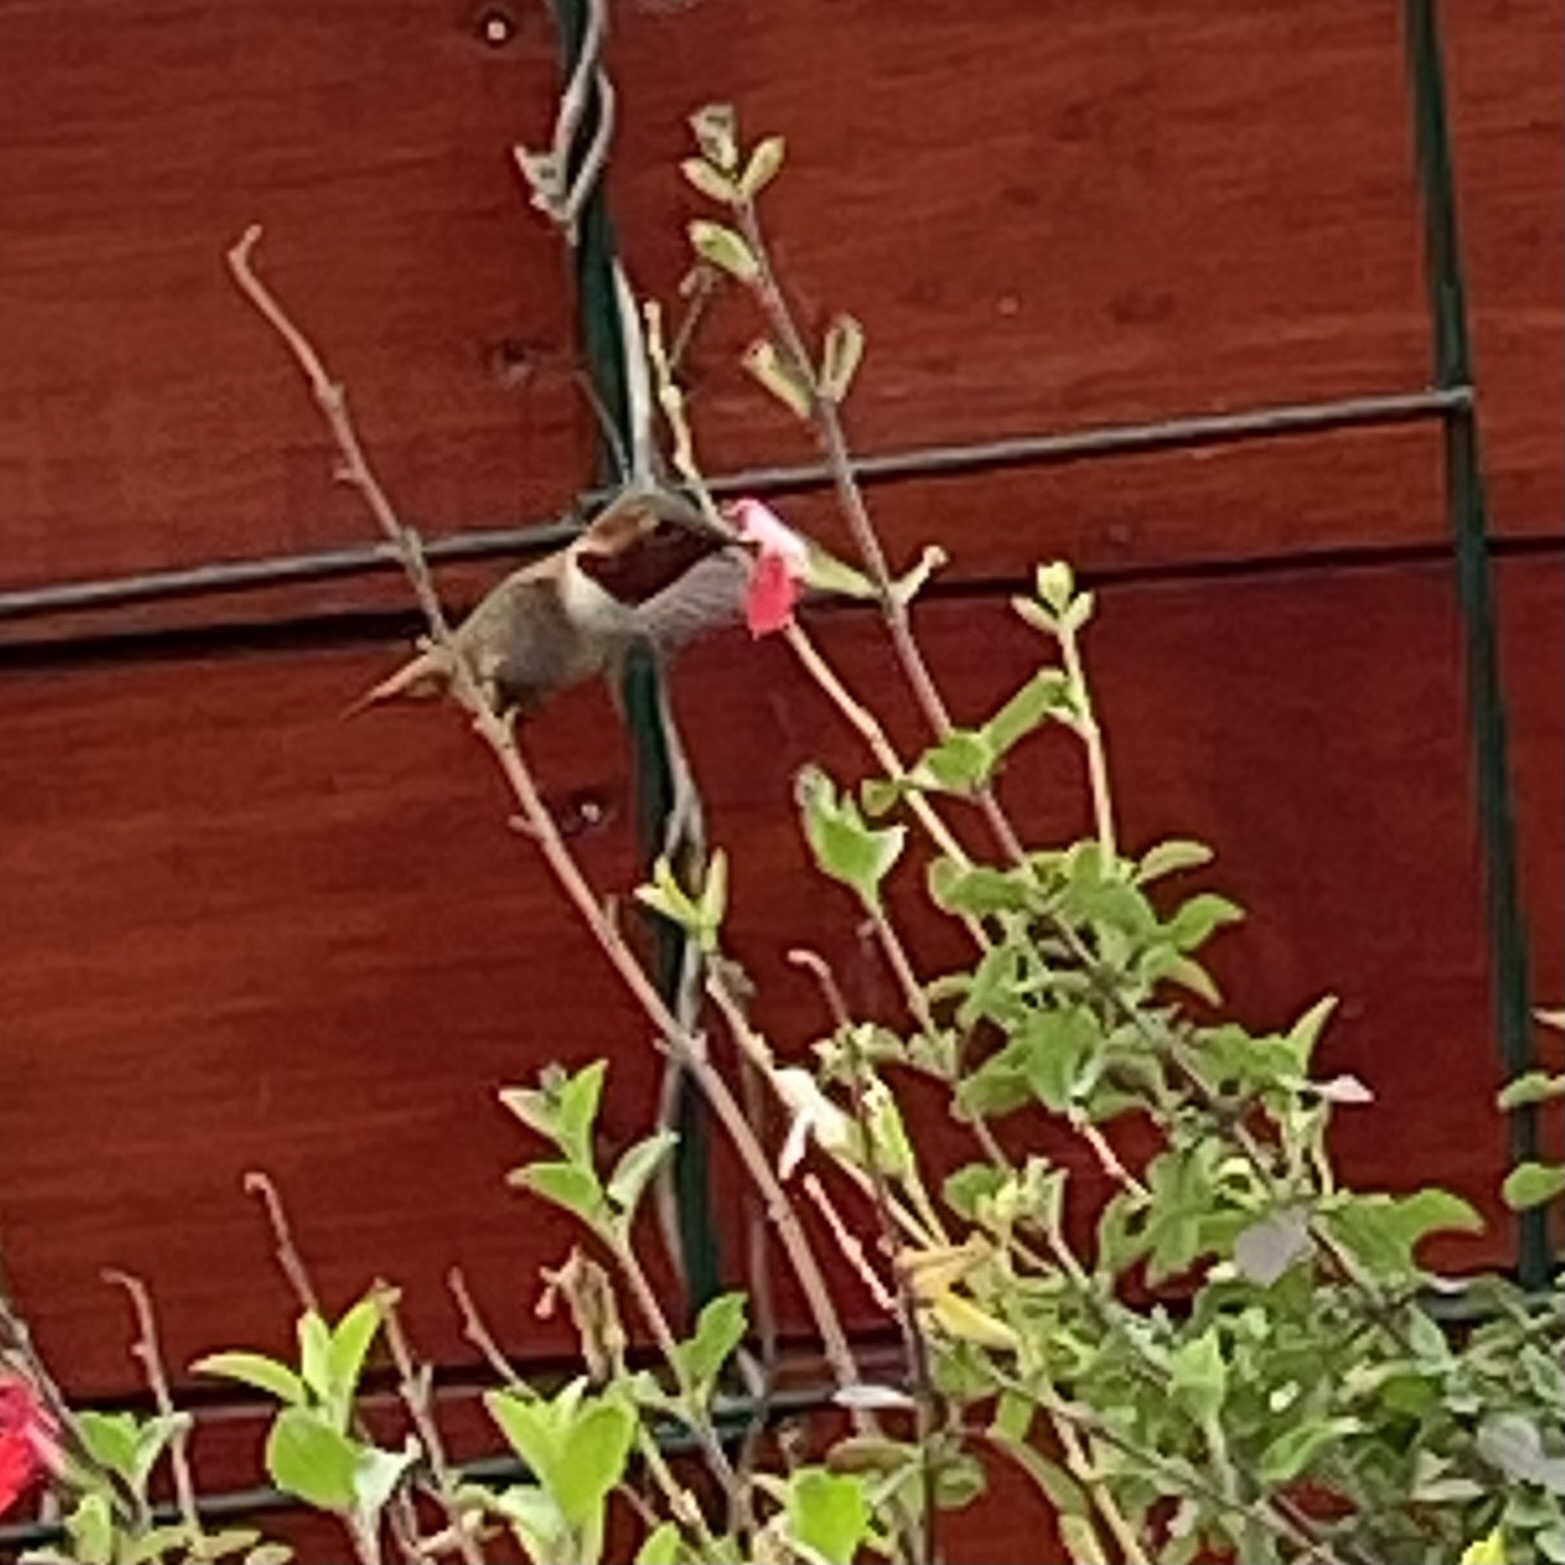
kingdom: Animalia
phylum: Chordata
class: Aves
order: Apodiformes
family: Trochilidae
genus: Selasphorus
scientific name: Selasphorus sasin
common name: Allen's hummingbird
